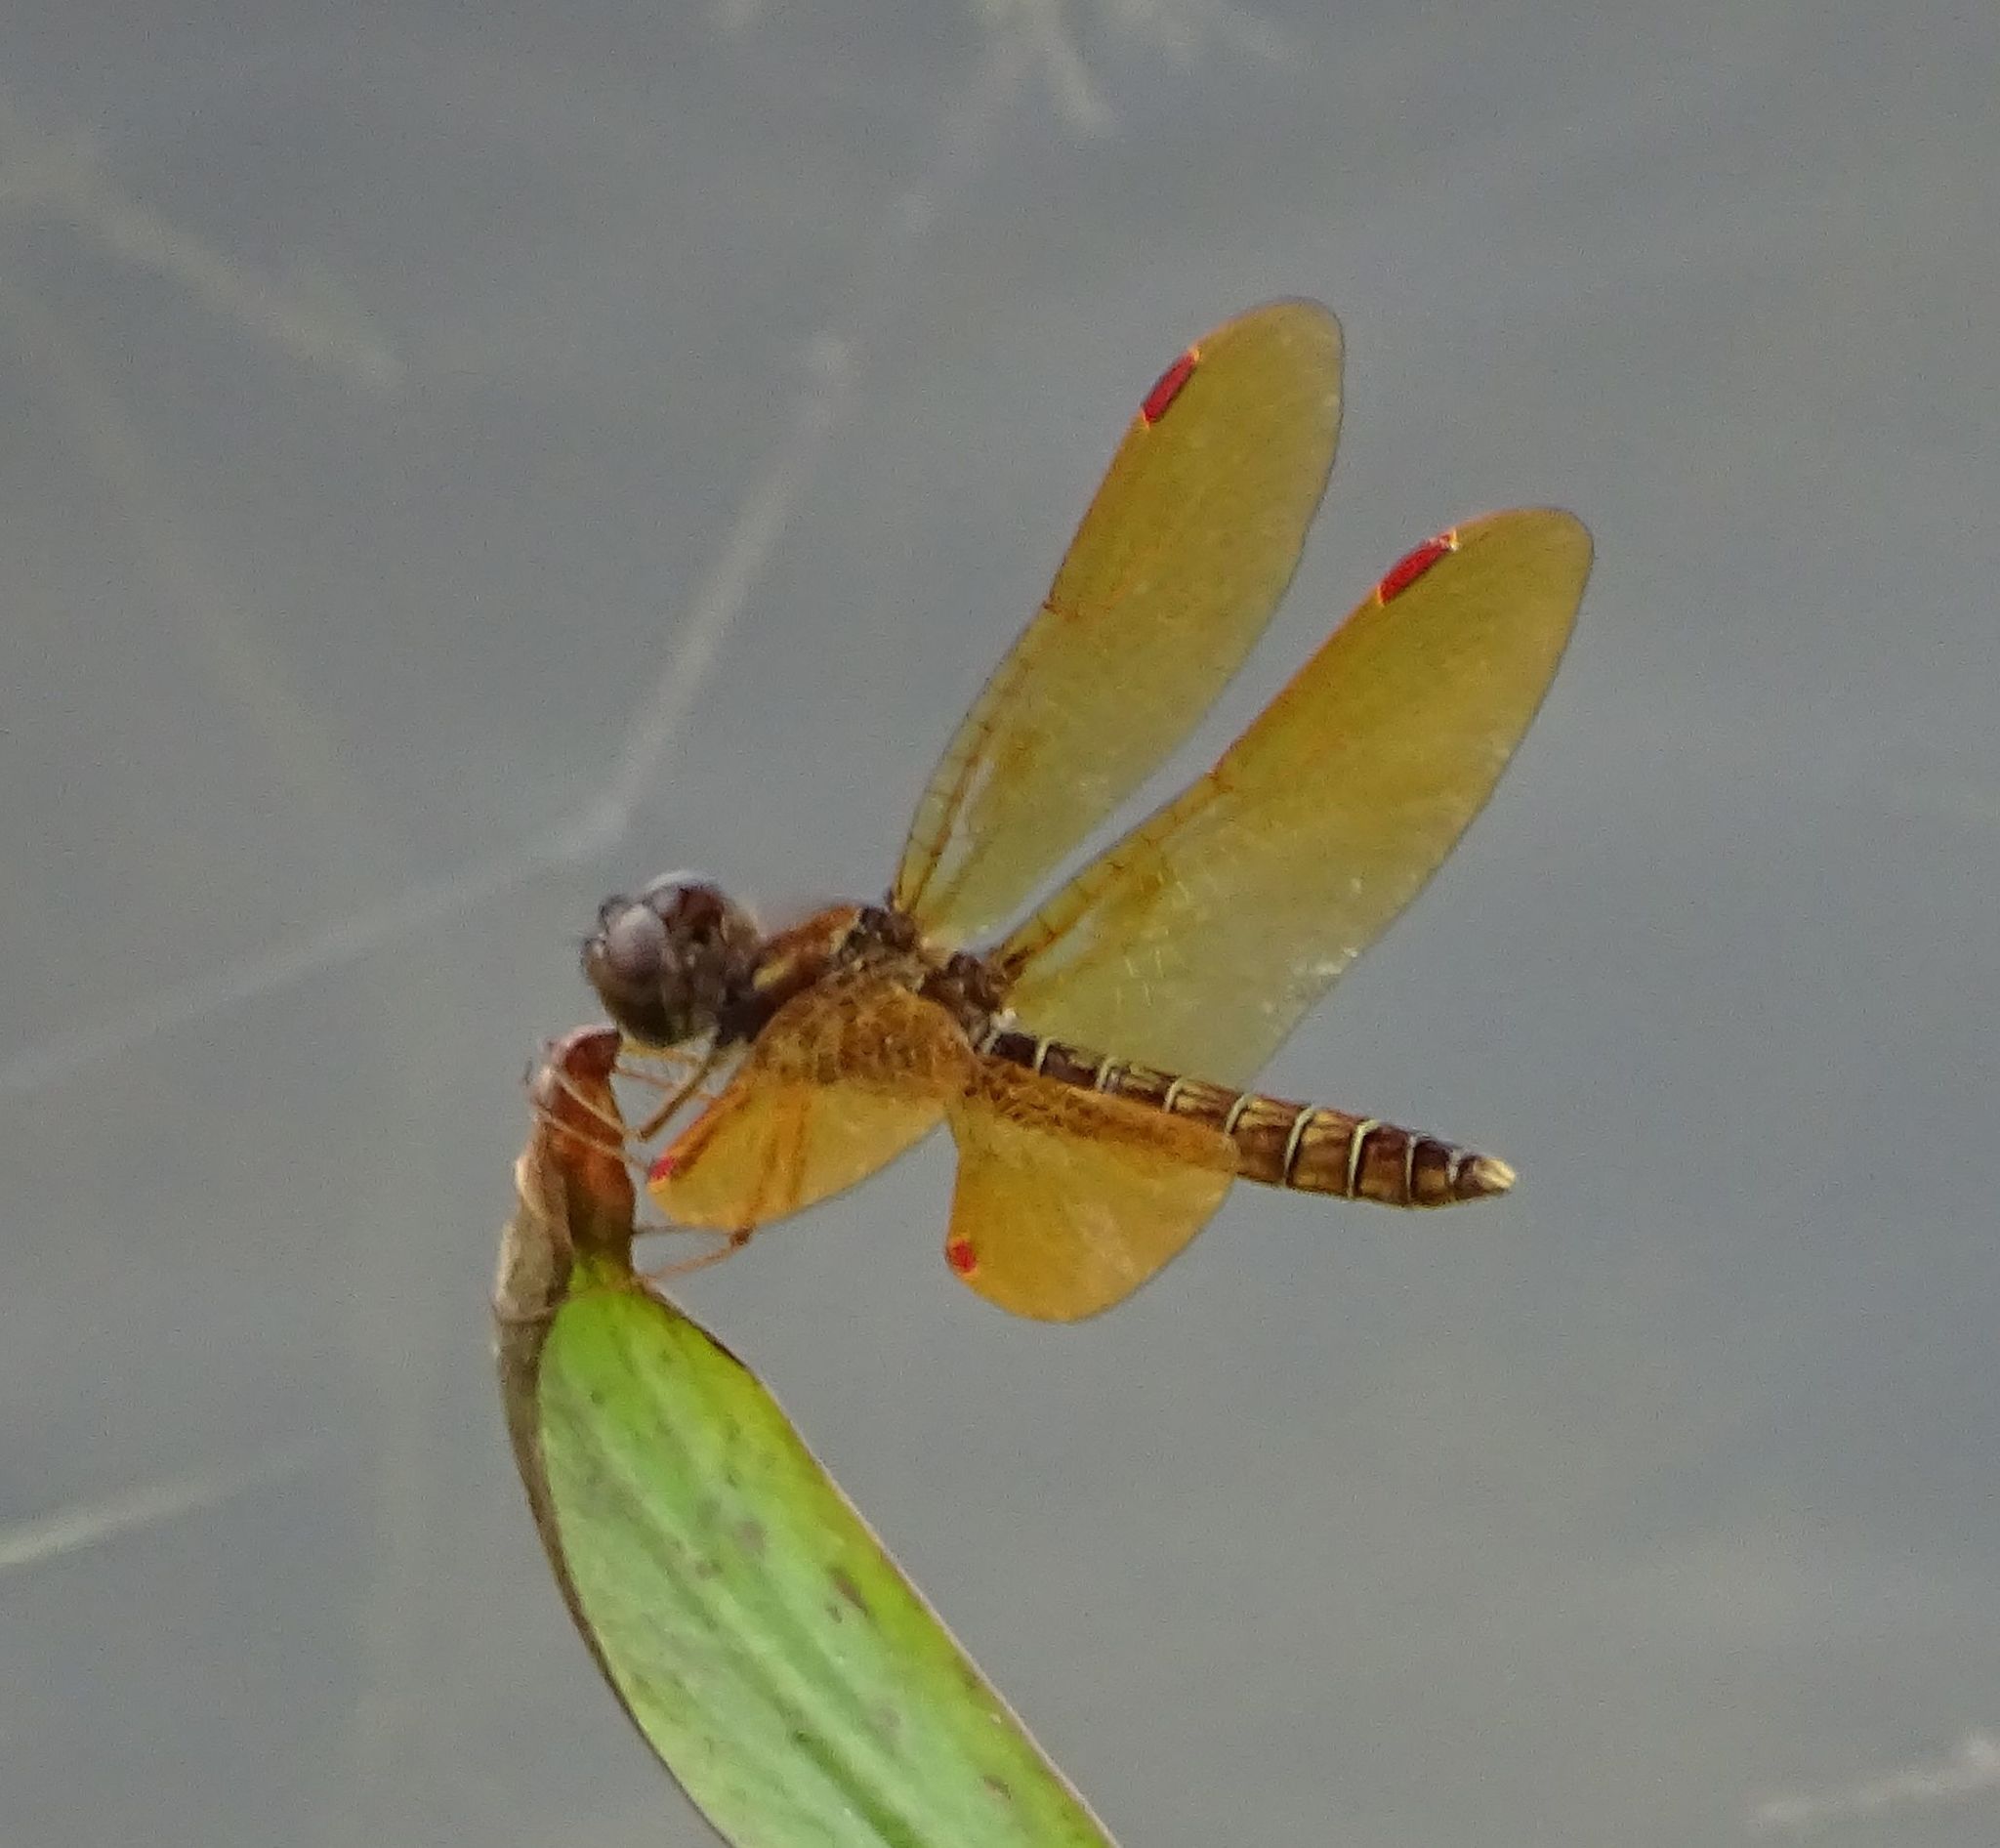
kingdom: Animalia
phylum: Arthropoda
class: Insecta
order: Odonata
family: Libellulidae
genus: Perithemis
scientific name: Perithemis tenera
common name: Eastern amberwing
